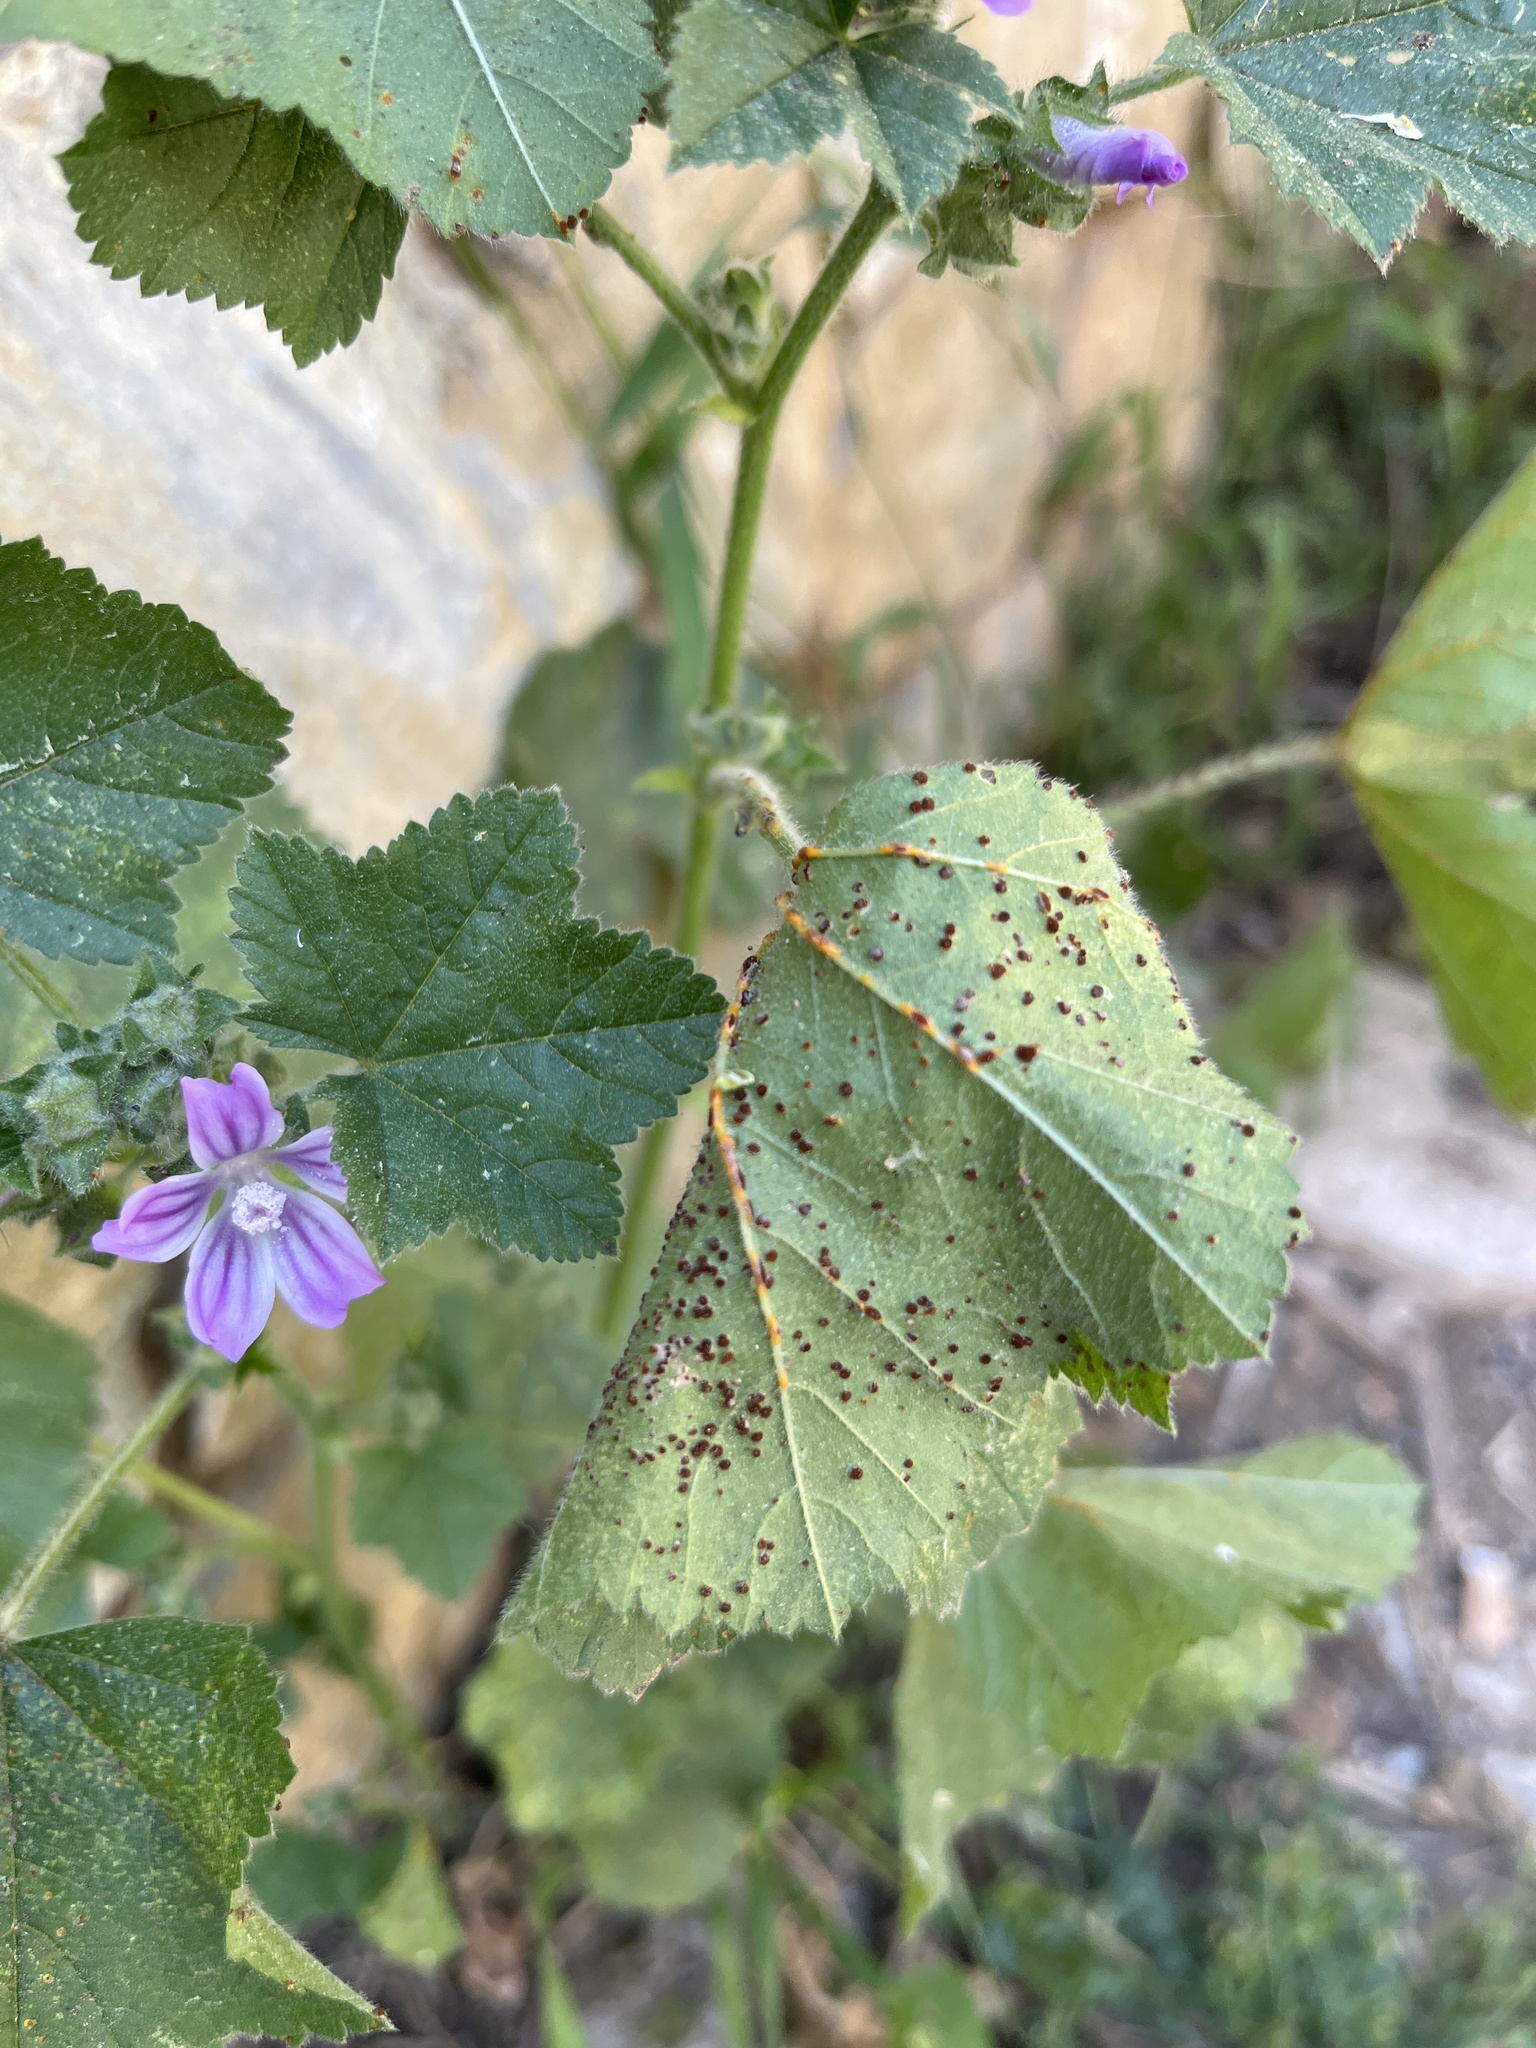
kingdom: Fungi
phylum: Basidiomycota
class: Pucciniomycetes
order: Pucciniales
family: Pucciniaceae
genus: Puccinia
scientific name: Puccinia malvacearum
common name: Hollyhock rust
